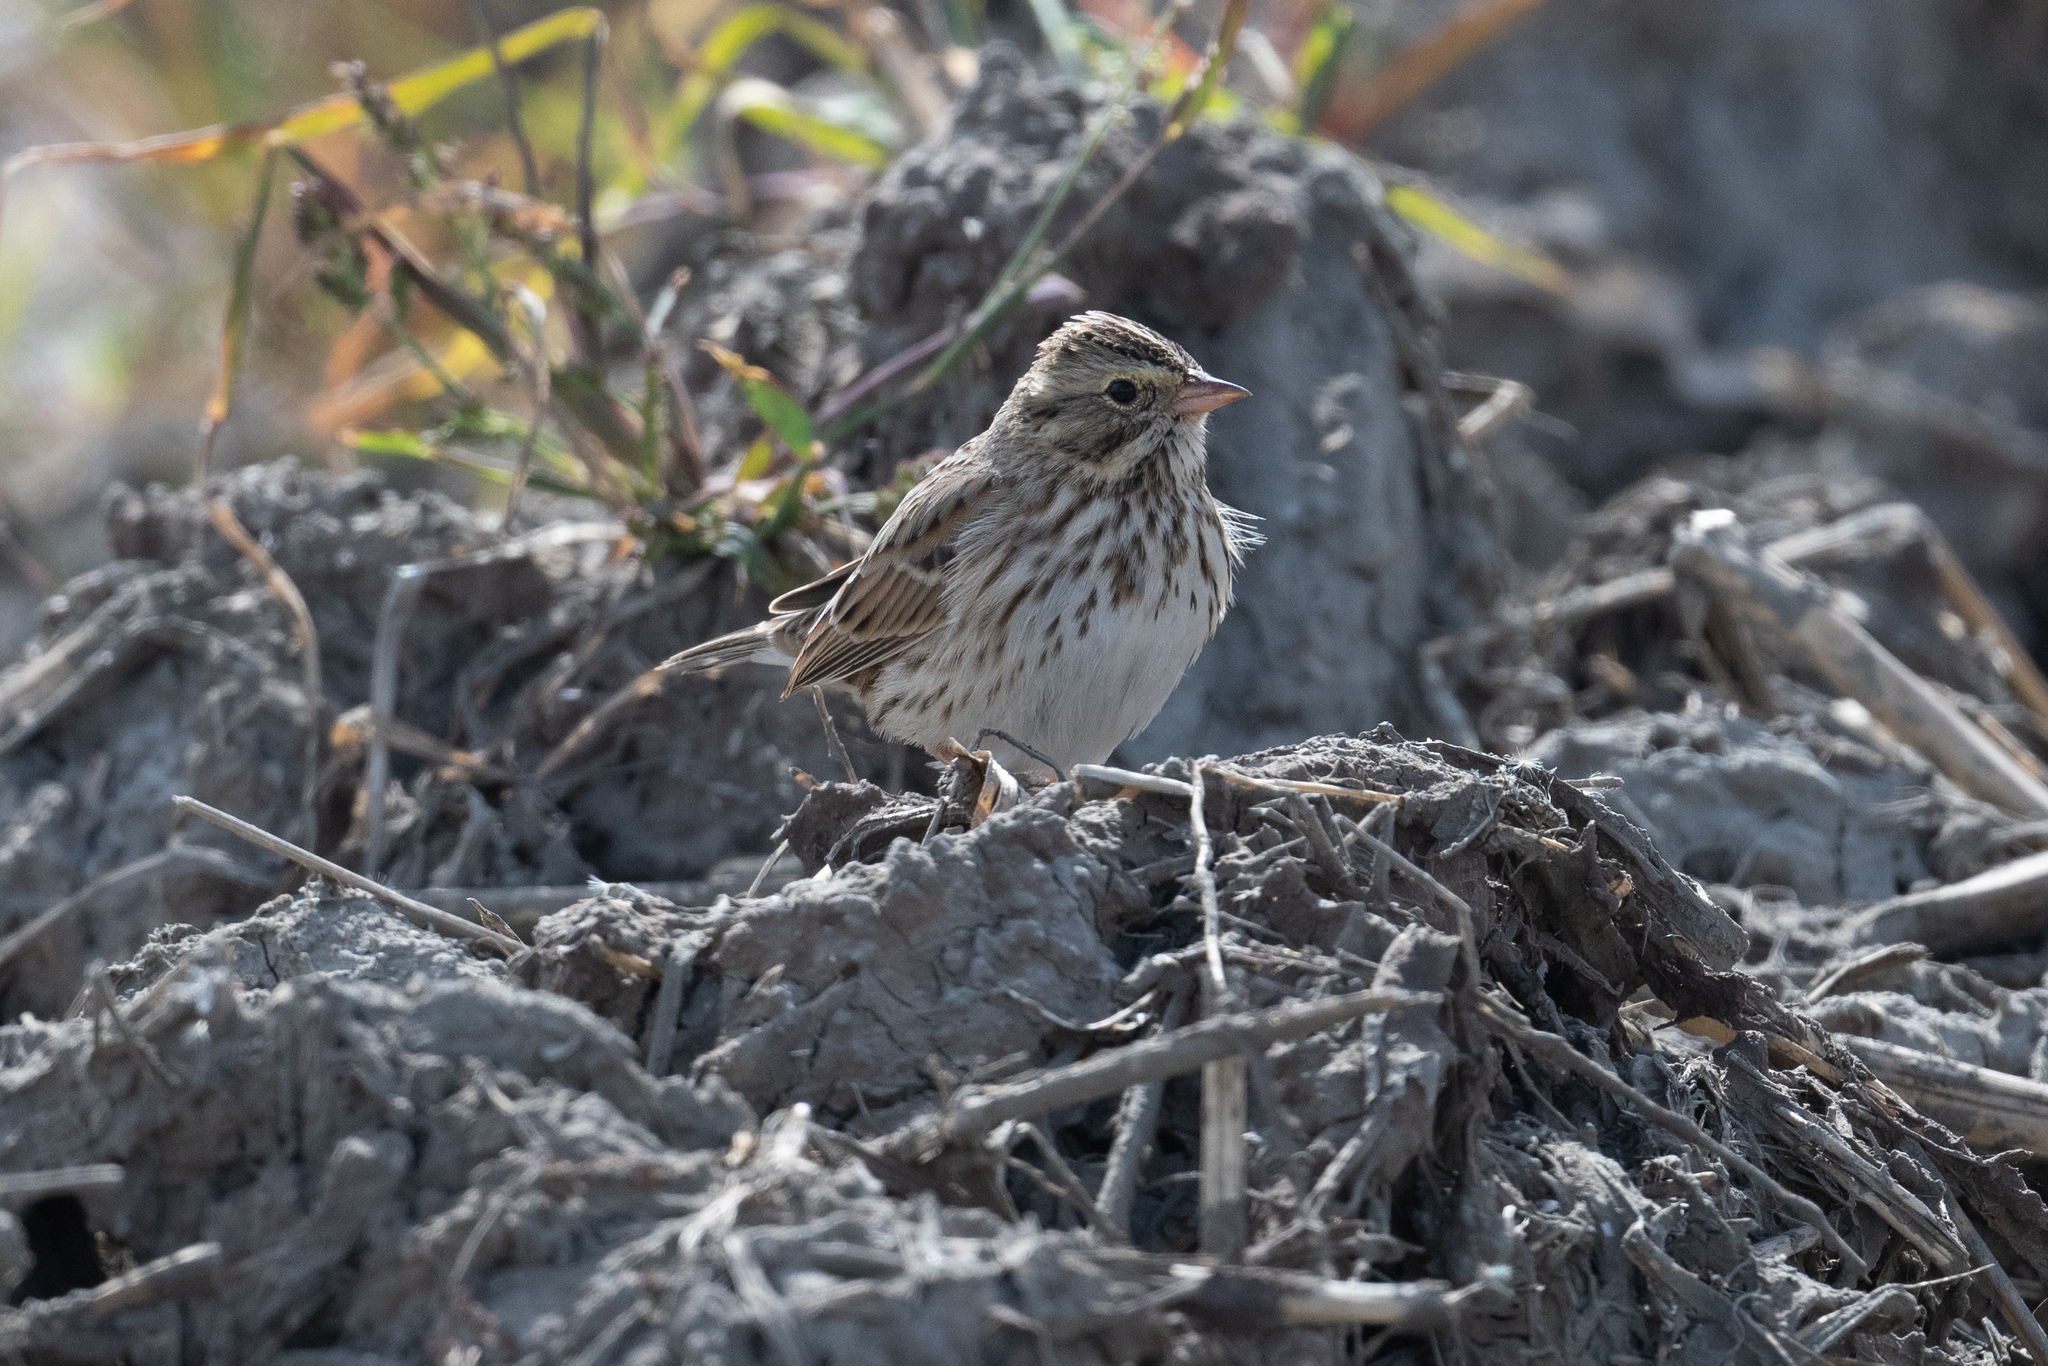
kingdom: Animalia
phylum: Chordata
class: Aves
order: Passeriformes
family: Passerellidae
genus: Passerculus
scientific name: Passerculus sandwichensis
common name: Savannah sparrow
